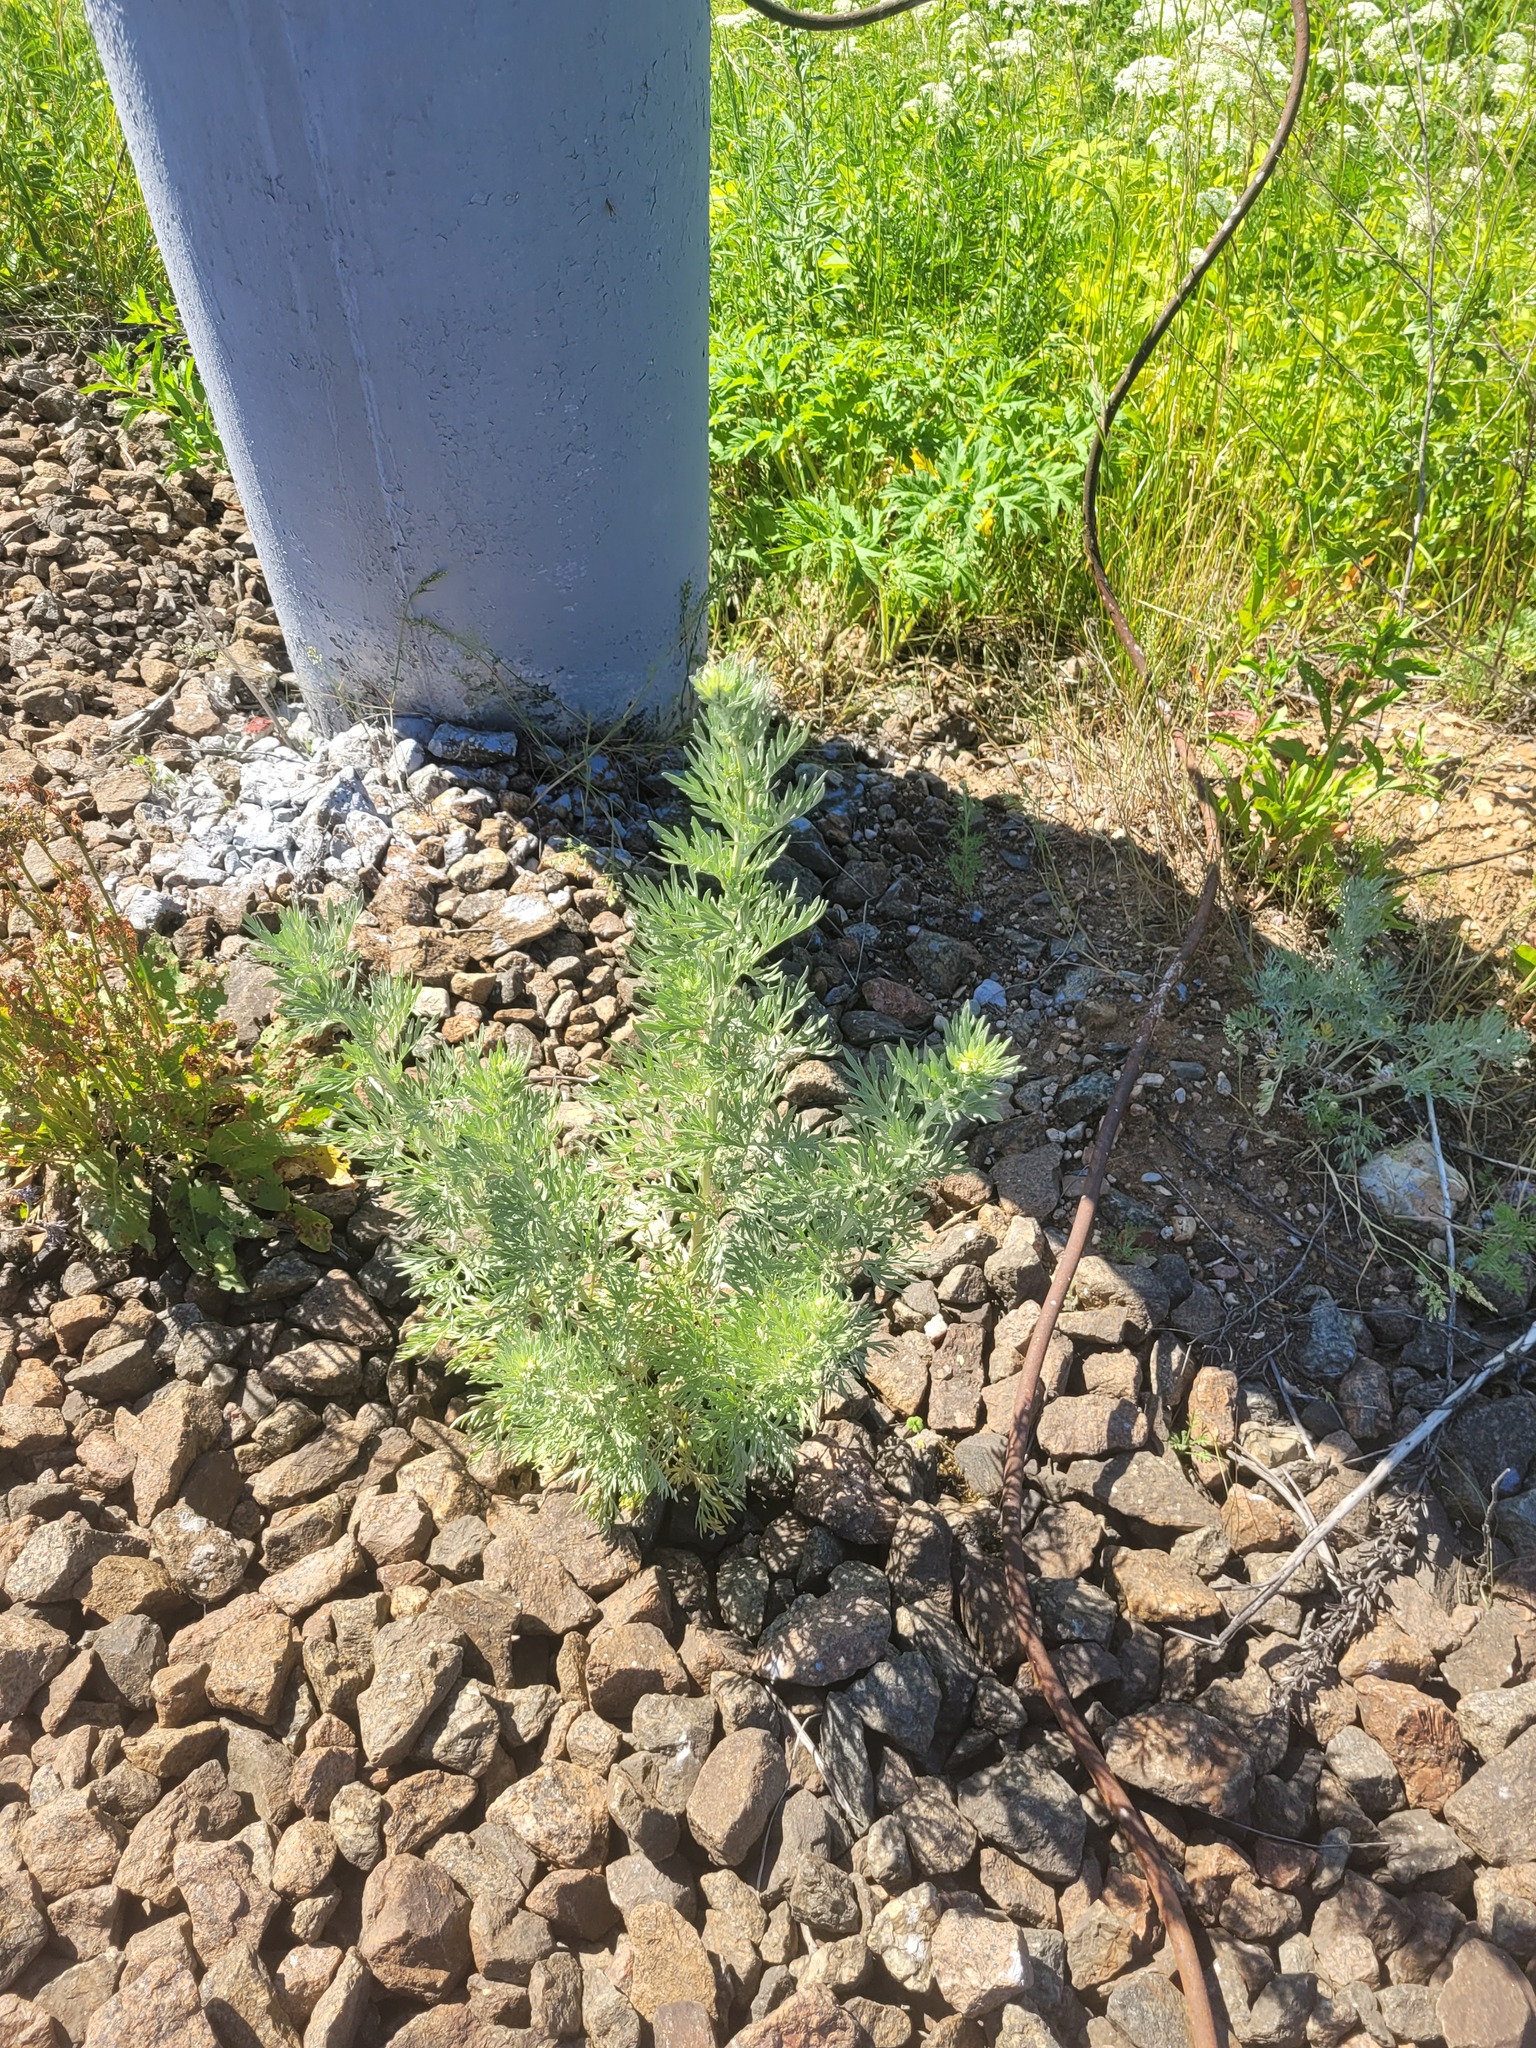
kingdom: Plantae
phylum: Tracheophyta
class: Magnoliopsida
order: Asterales
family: Asteraceae
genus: Artemisia
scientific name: Artemisia absinthium
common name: Wormwood
